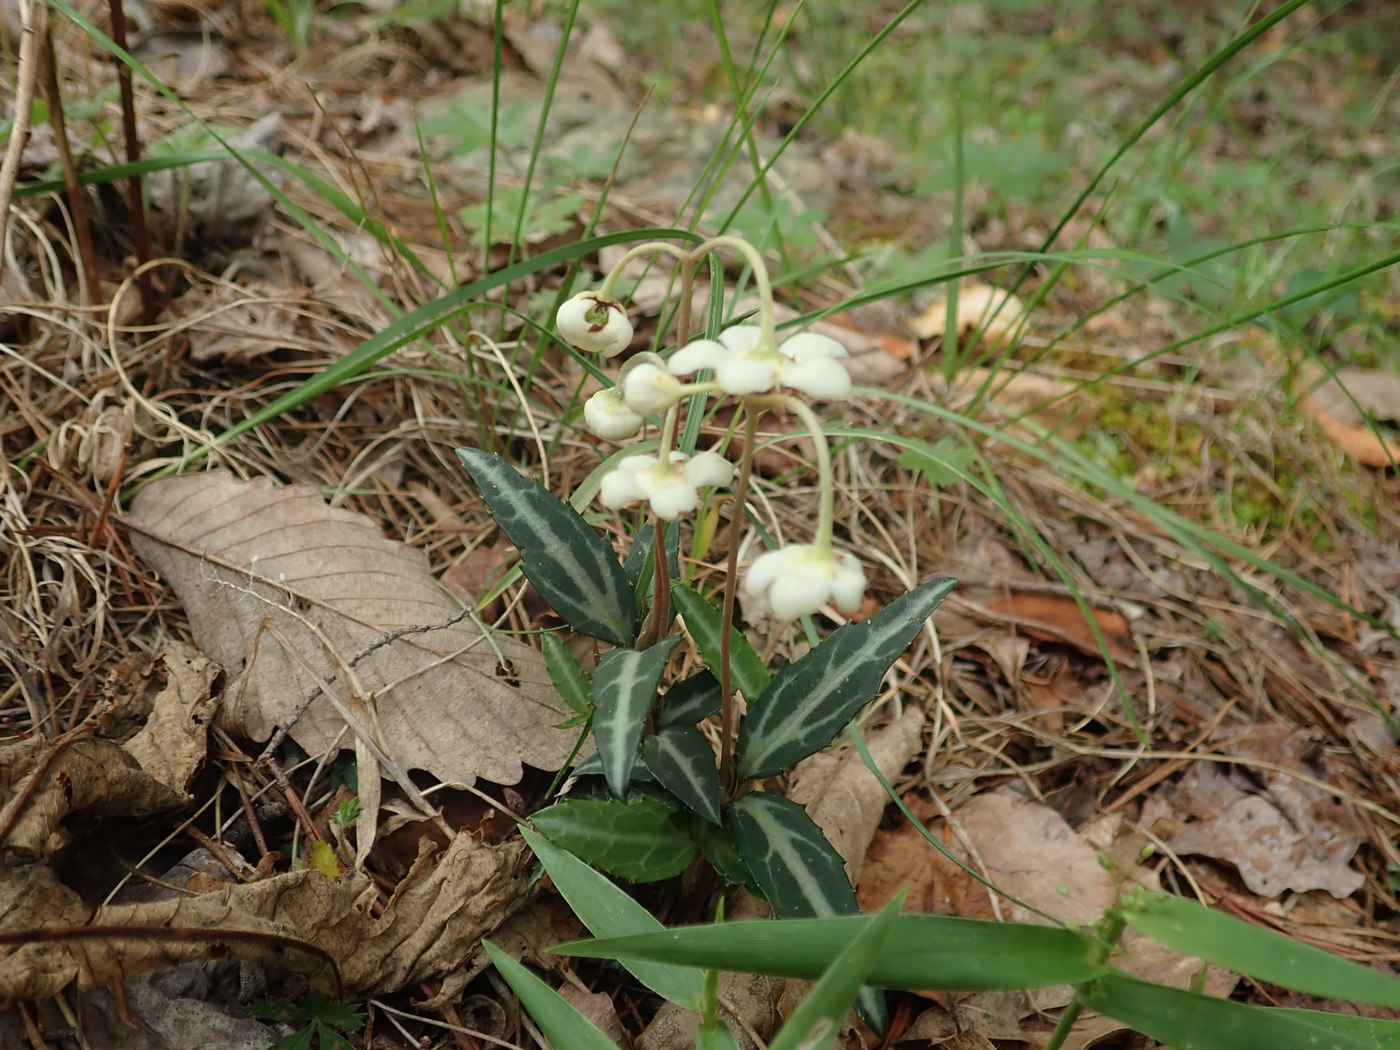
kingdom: Plantae
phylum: Tracheophyta
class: Magnoliopsida
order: Ericales
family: Ericaceae
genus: Chimaphila
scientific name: Chimaphila maculata
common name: Spotted pipsissewa
